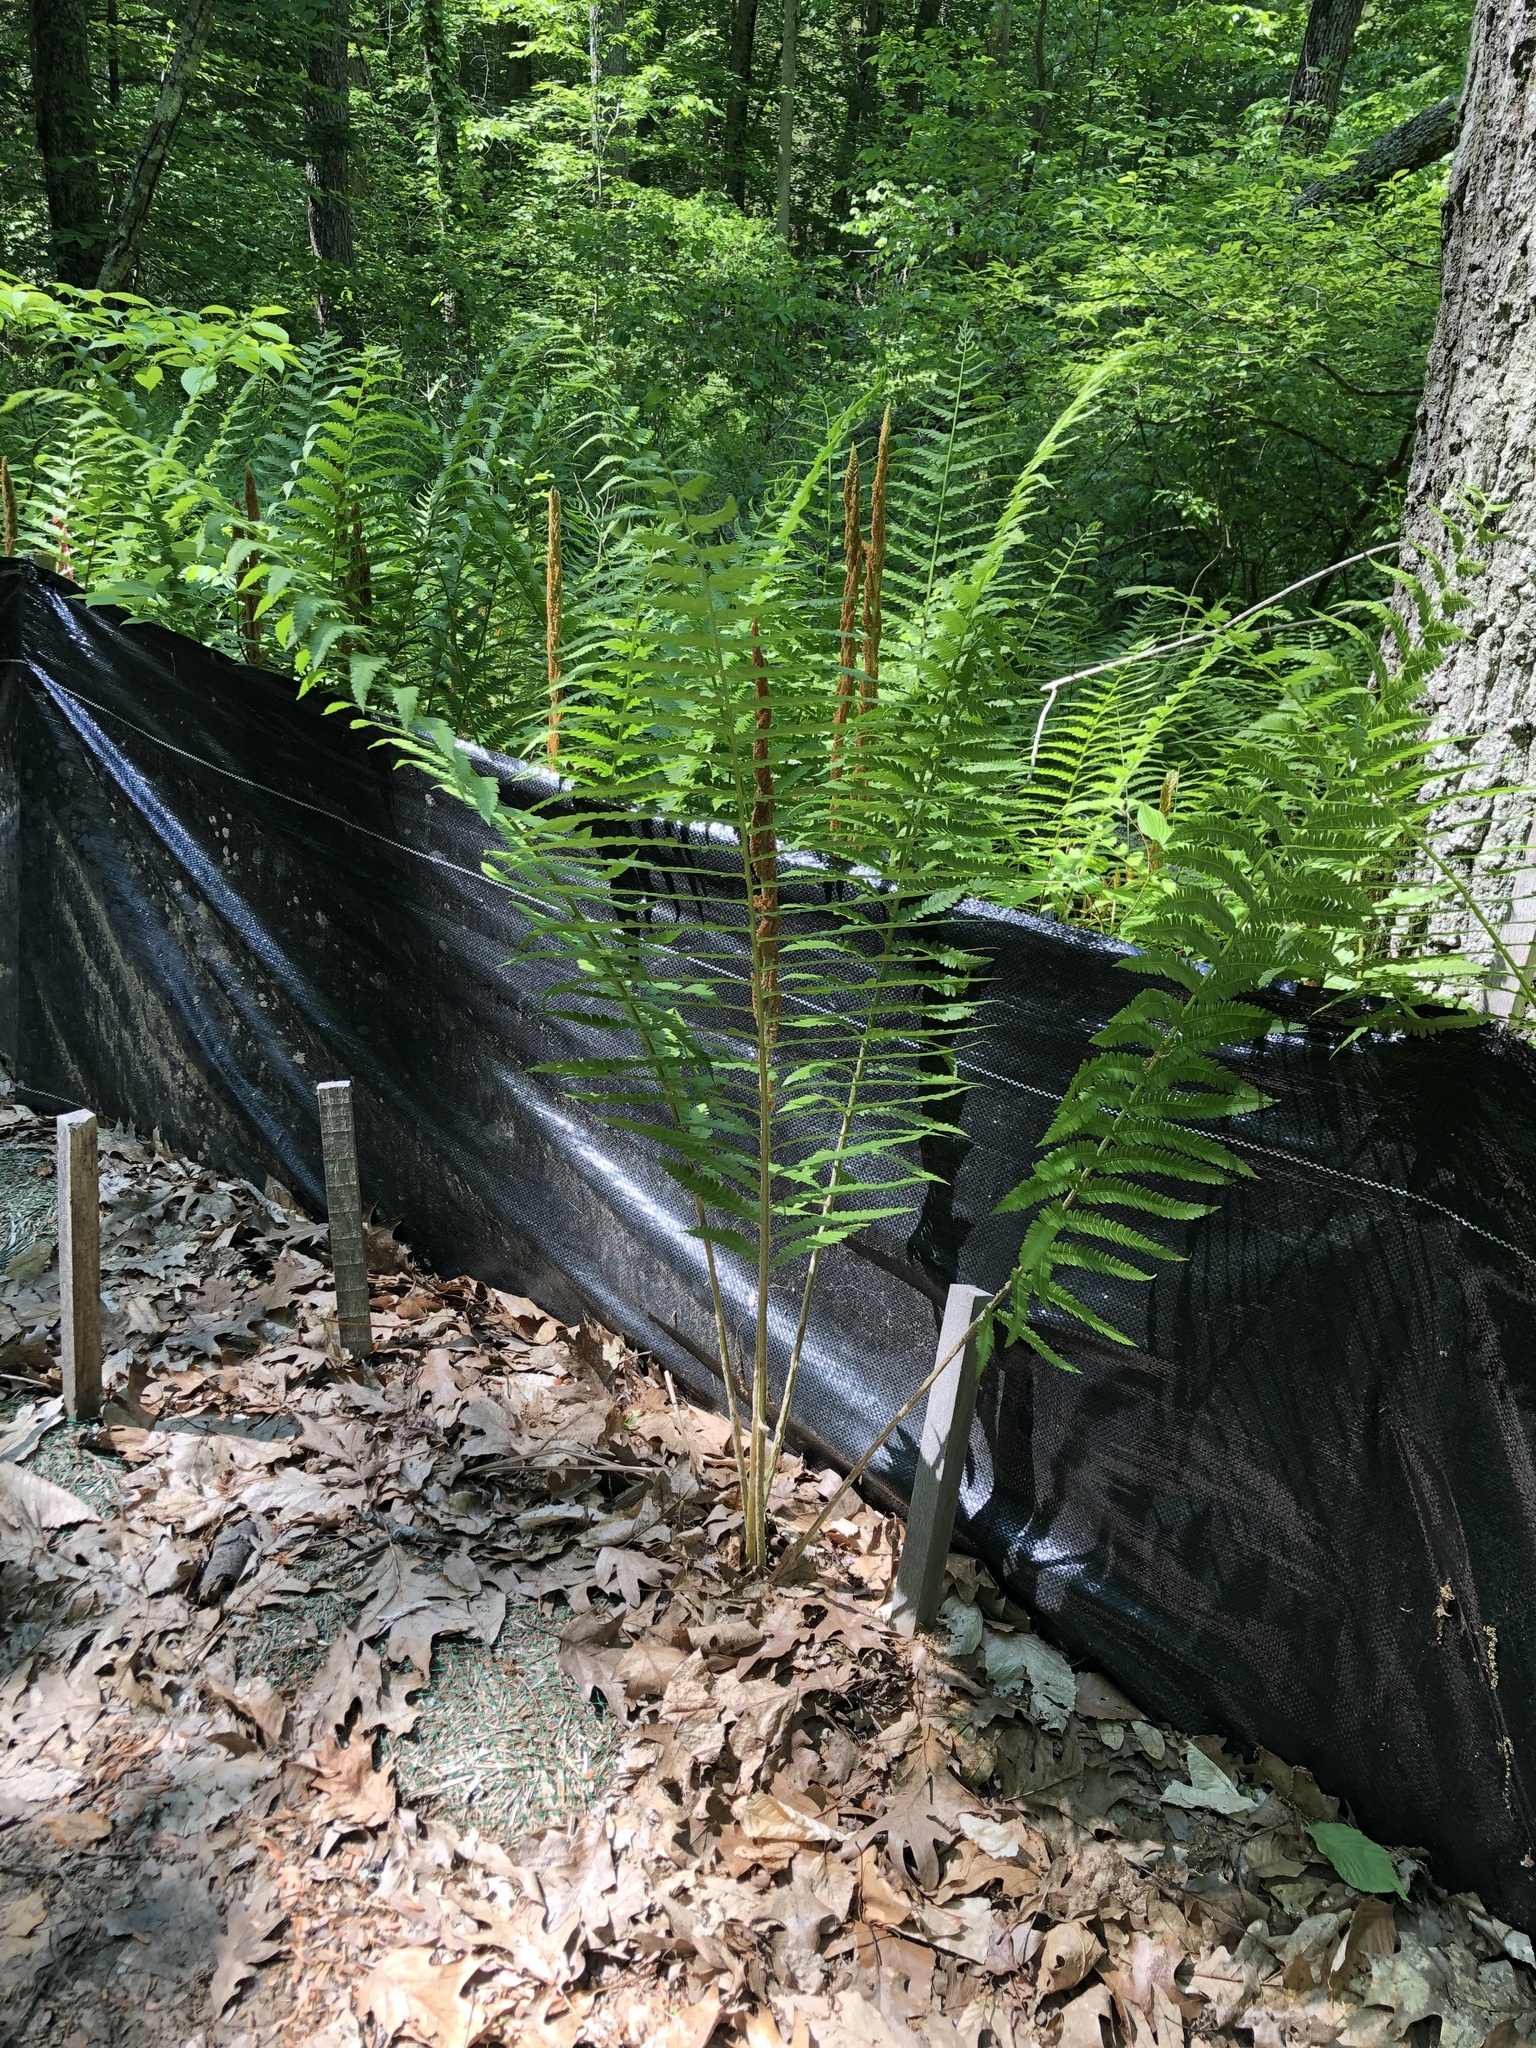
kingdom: Plantae
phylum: Tracheophyta
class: Polypodiopsida
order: Osmundales
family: Osmundaceae
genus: Osmundastrum
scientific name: Osmundastrum cinnamomeum
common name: Cinnamon fern
